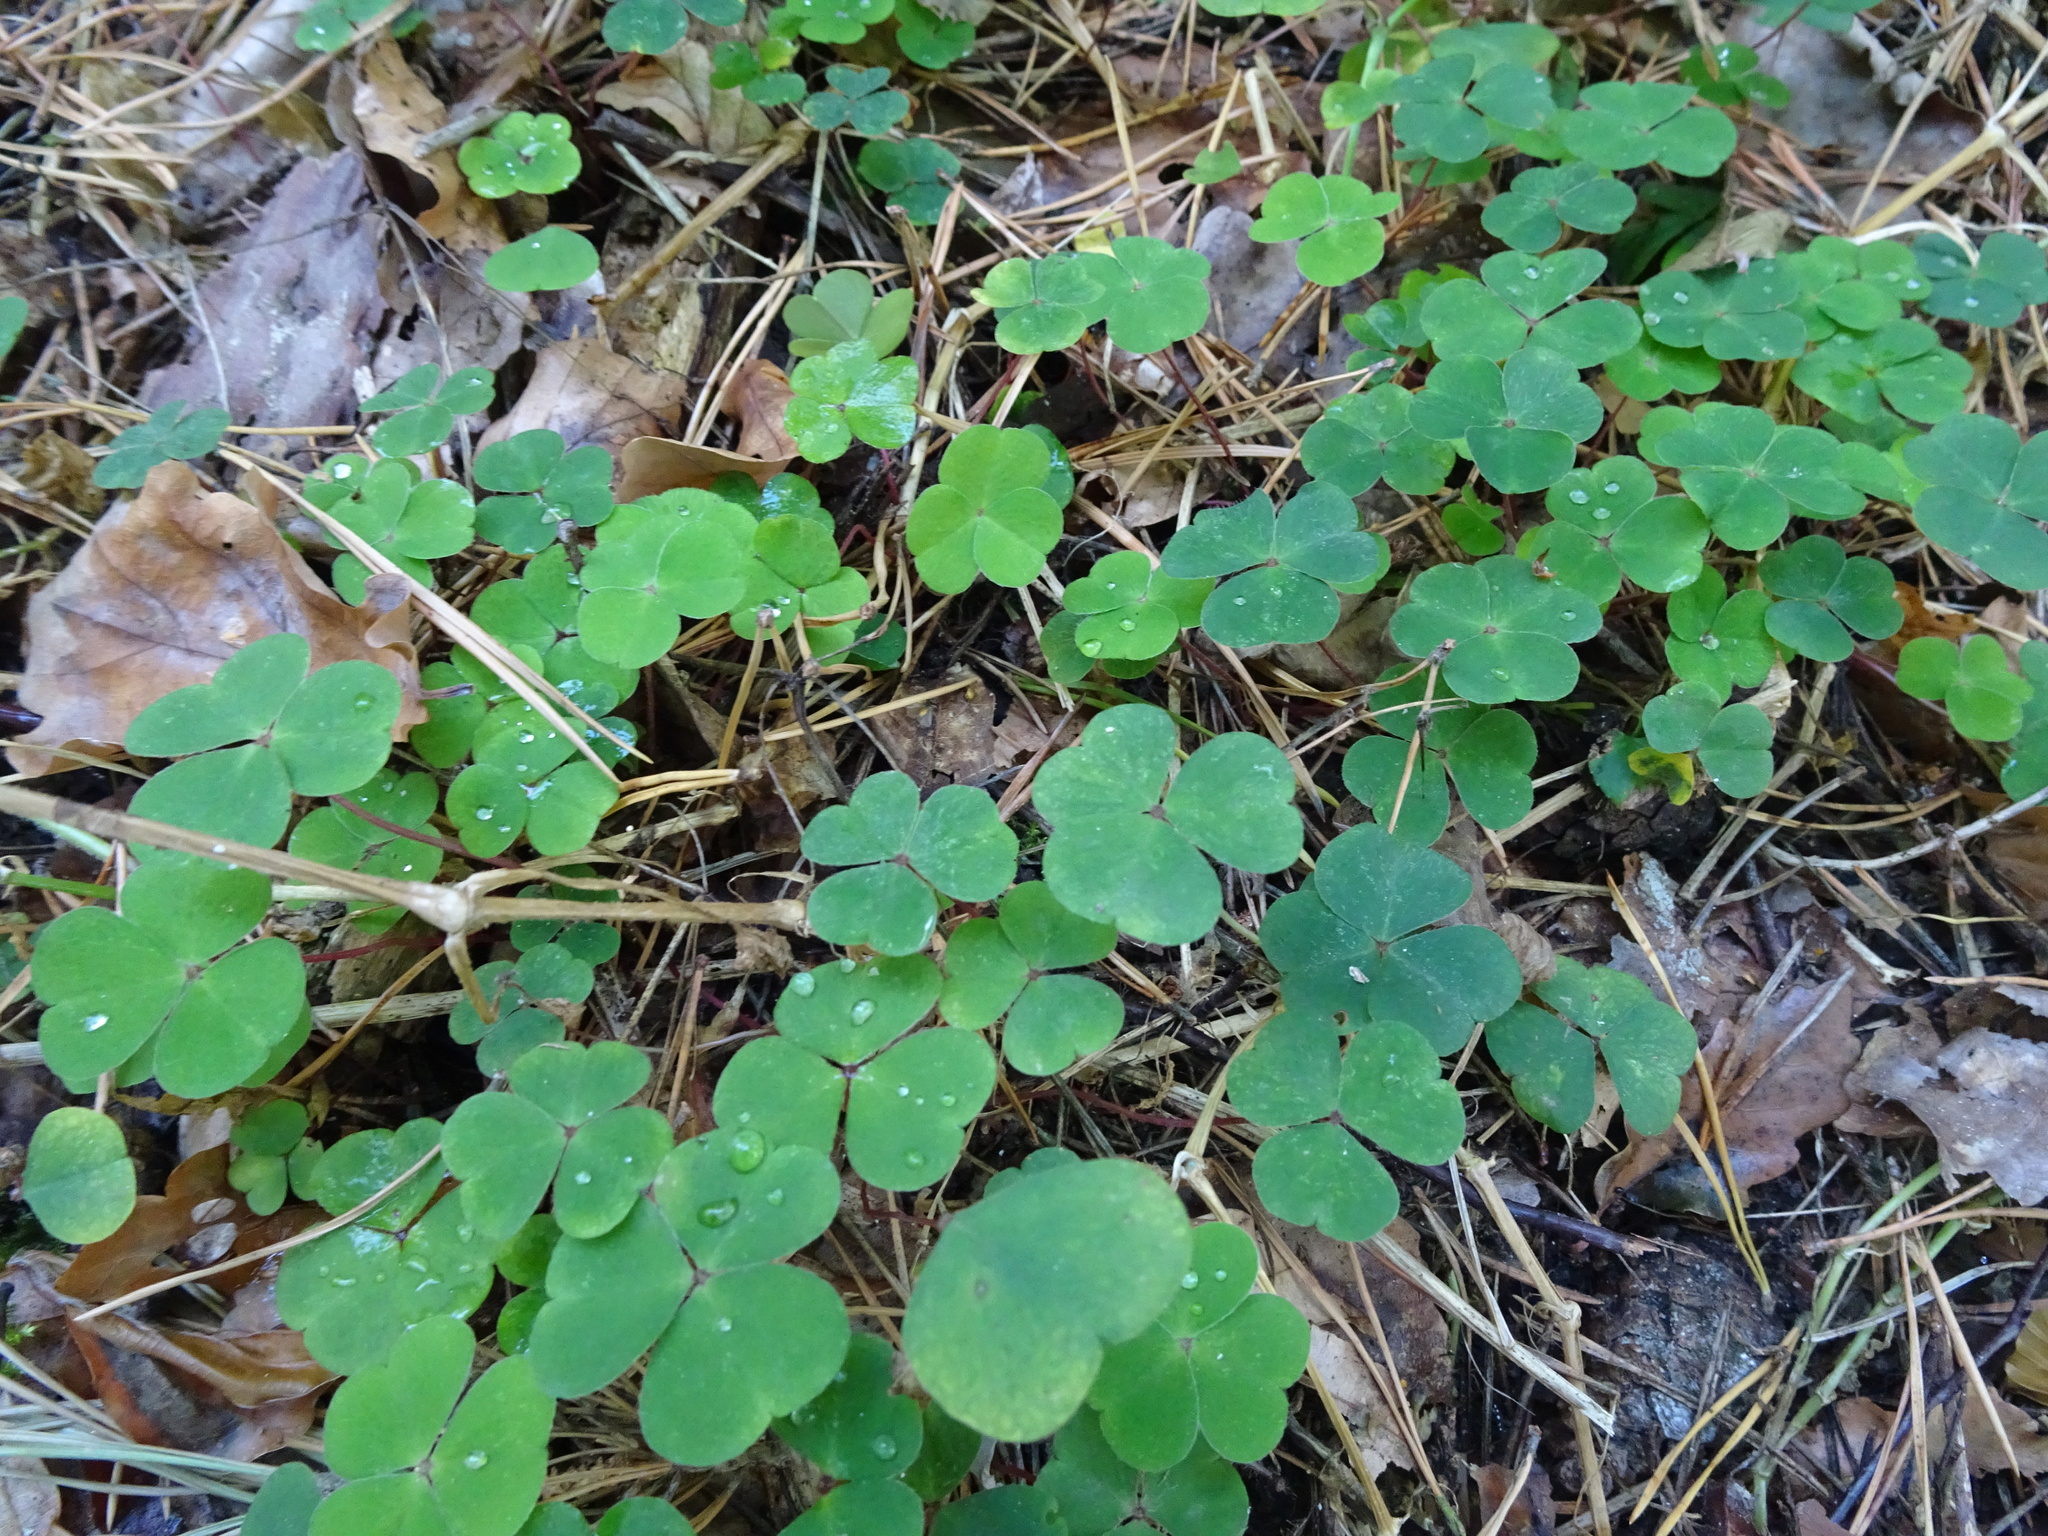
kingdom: Plantae
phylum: Tracheophyta
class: Magnoliopsida
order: Oxalidales
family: Oxalidaceae
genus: Oxalis
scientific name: Oxalis acetosella
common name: Wood-sorrel
